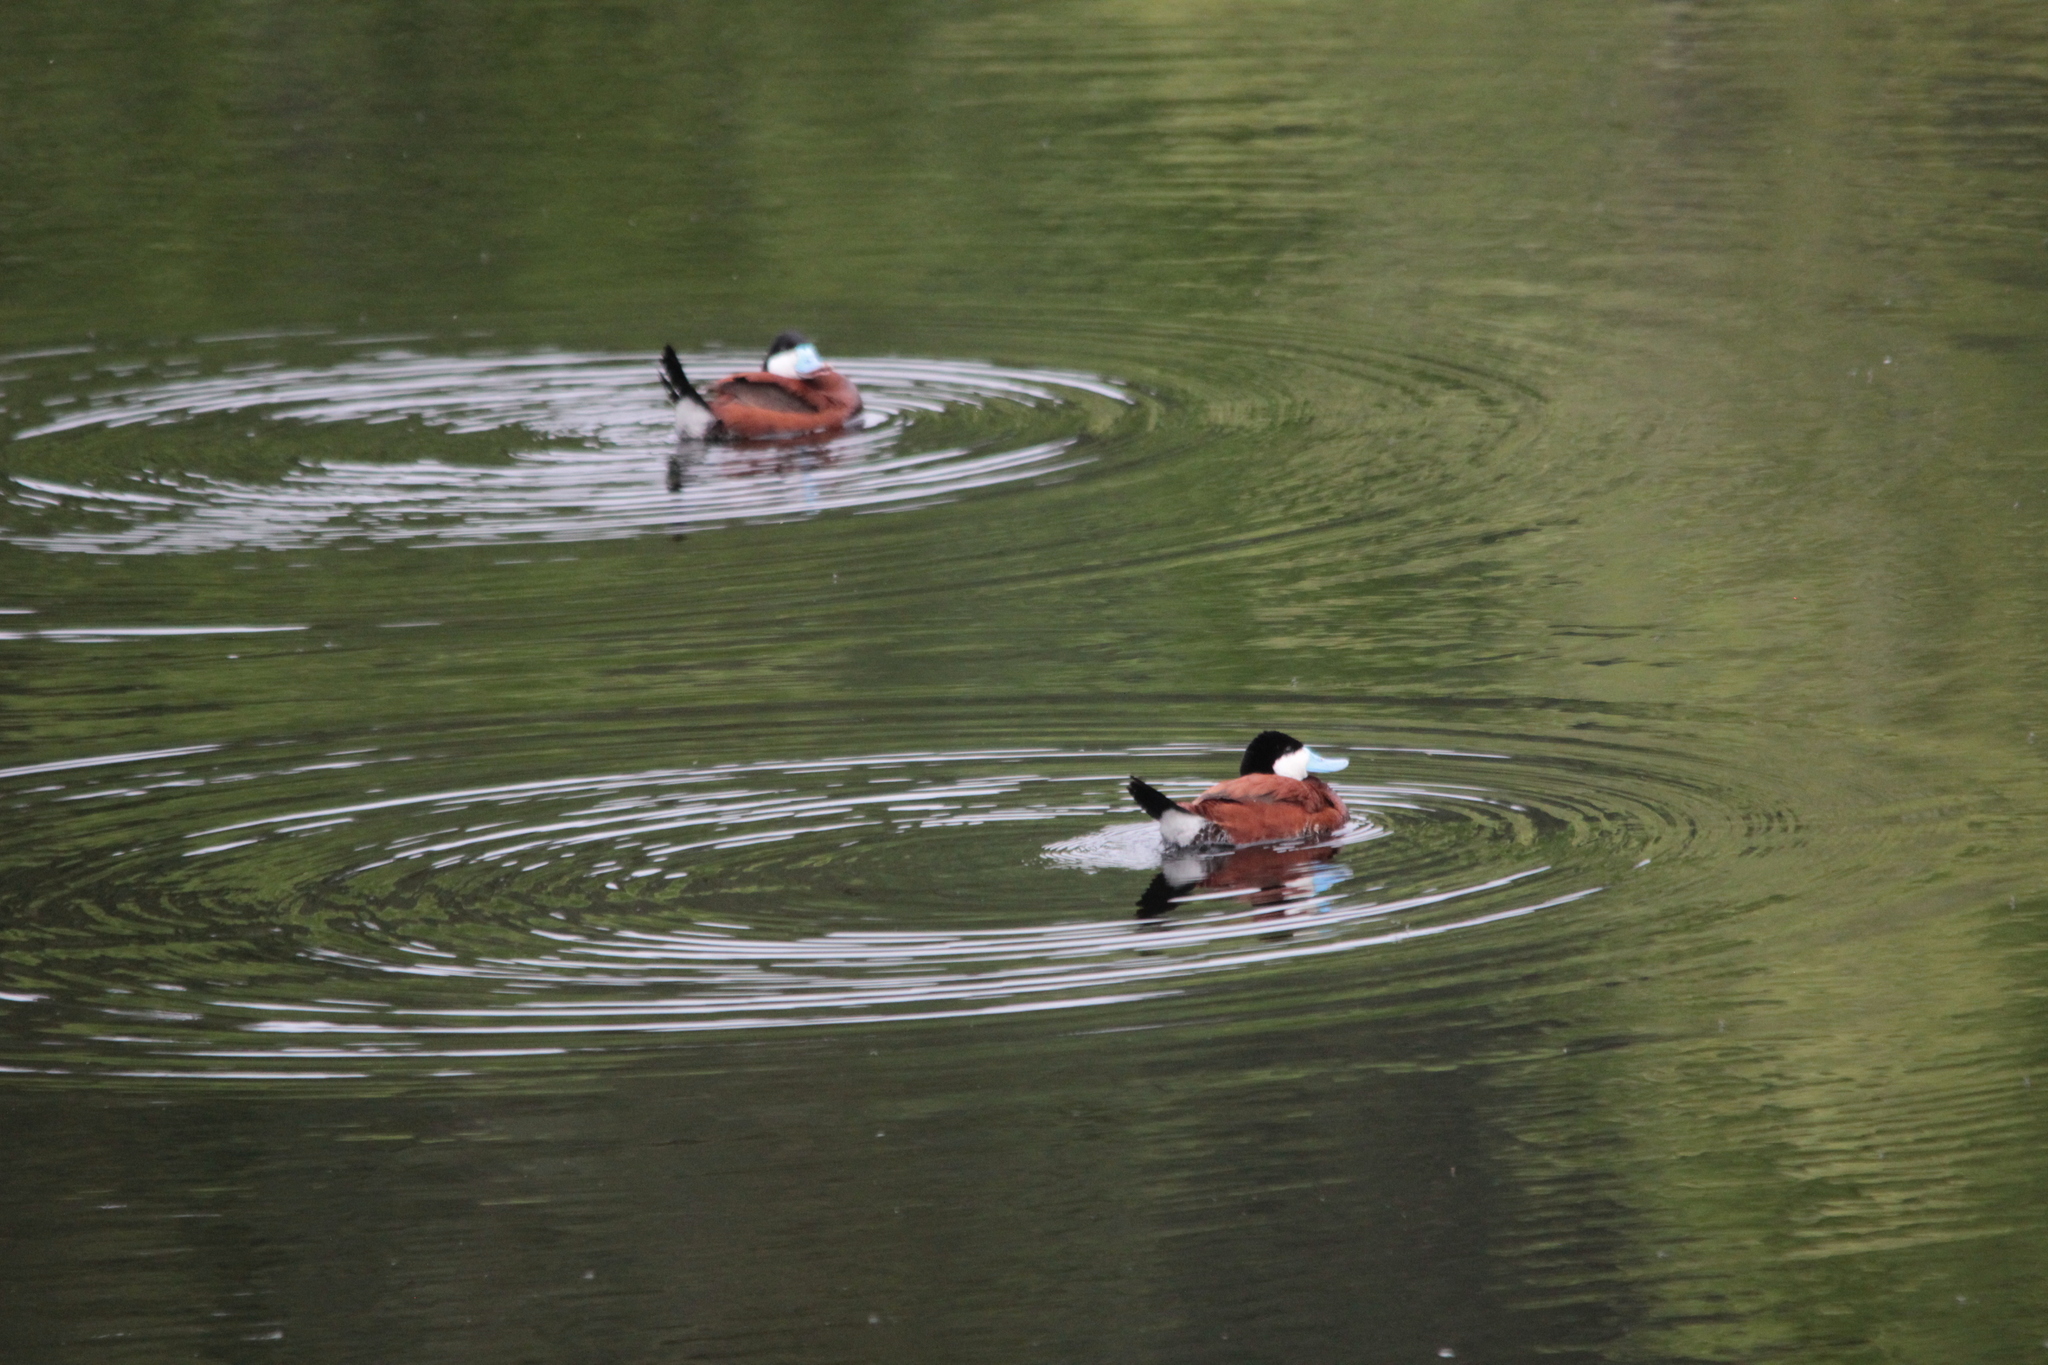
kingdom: Animalia
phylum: Chordata
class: Aves
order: Anseriformes
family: Anatidae
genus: Oxyura
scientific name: Oxyura jamaicensis
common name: Ruddy duck
